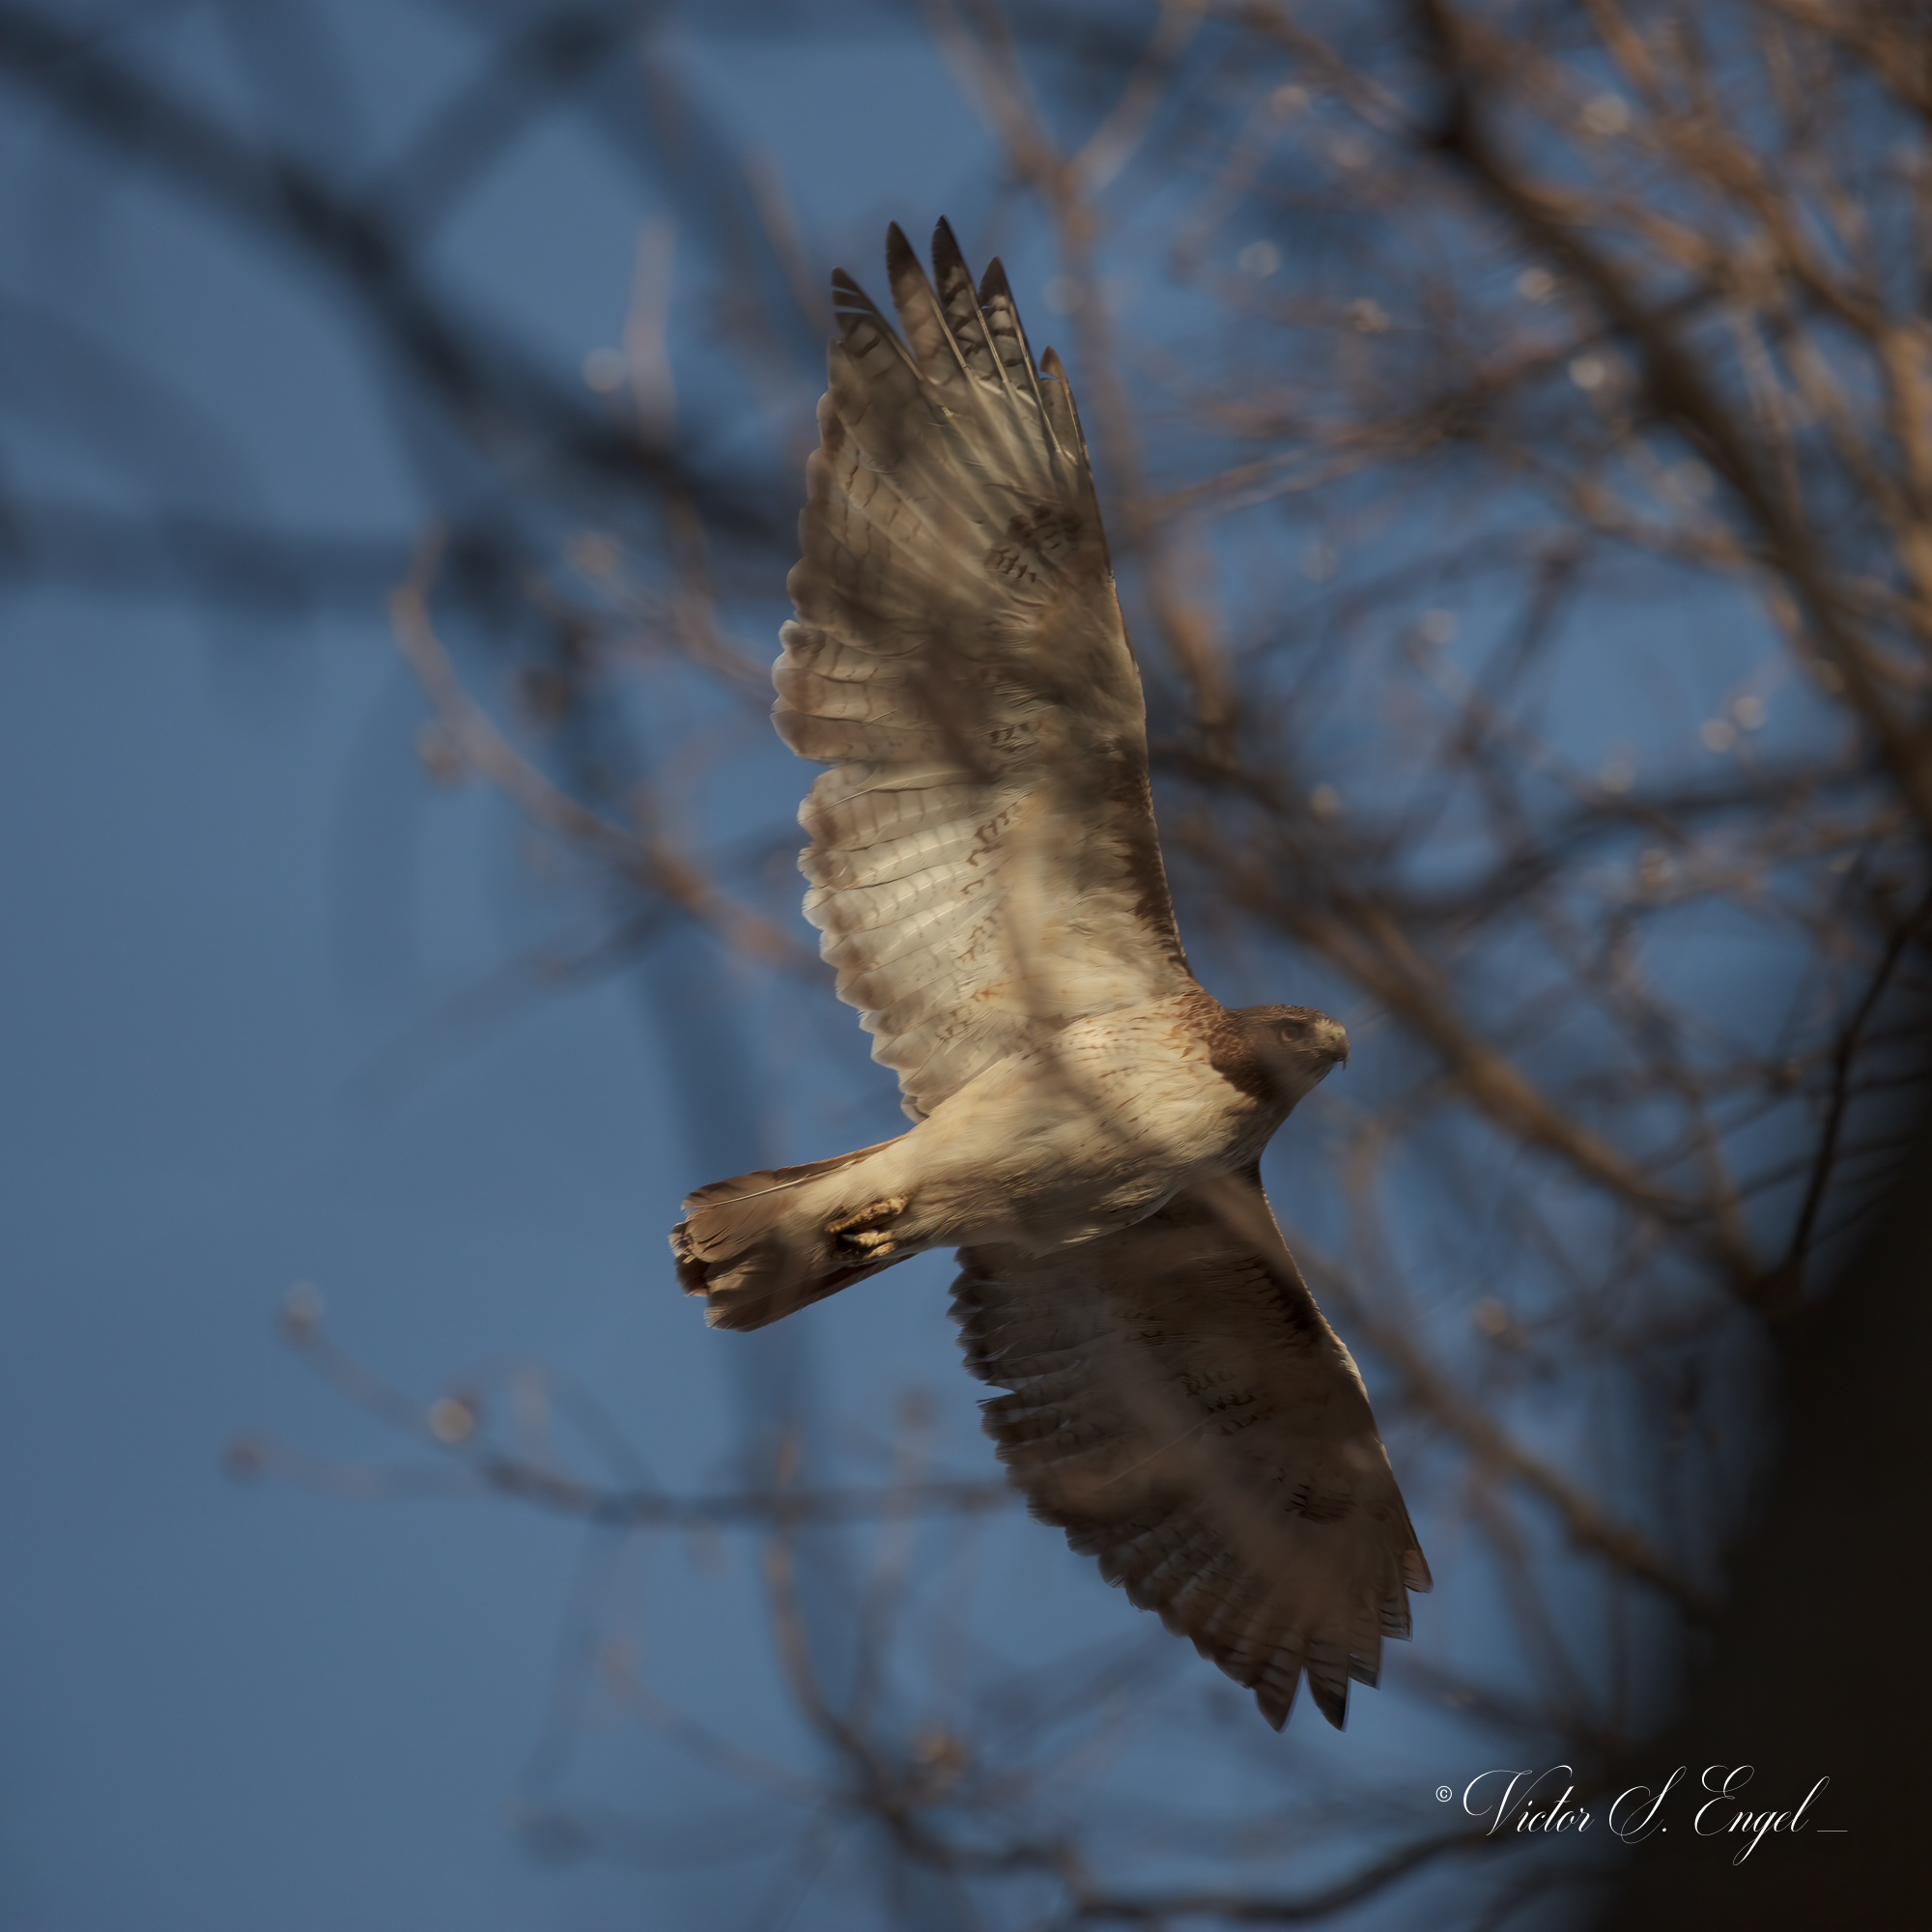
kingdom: Animalia
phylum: Chordata
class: Aves
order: Accipitriformes
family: Accipitridae
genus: Buteo
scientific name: Buteo jamaicensis
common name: Red-tailed hawk
